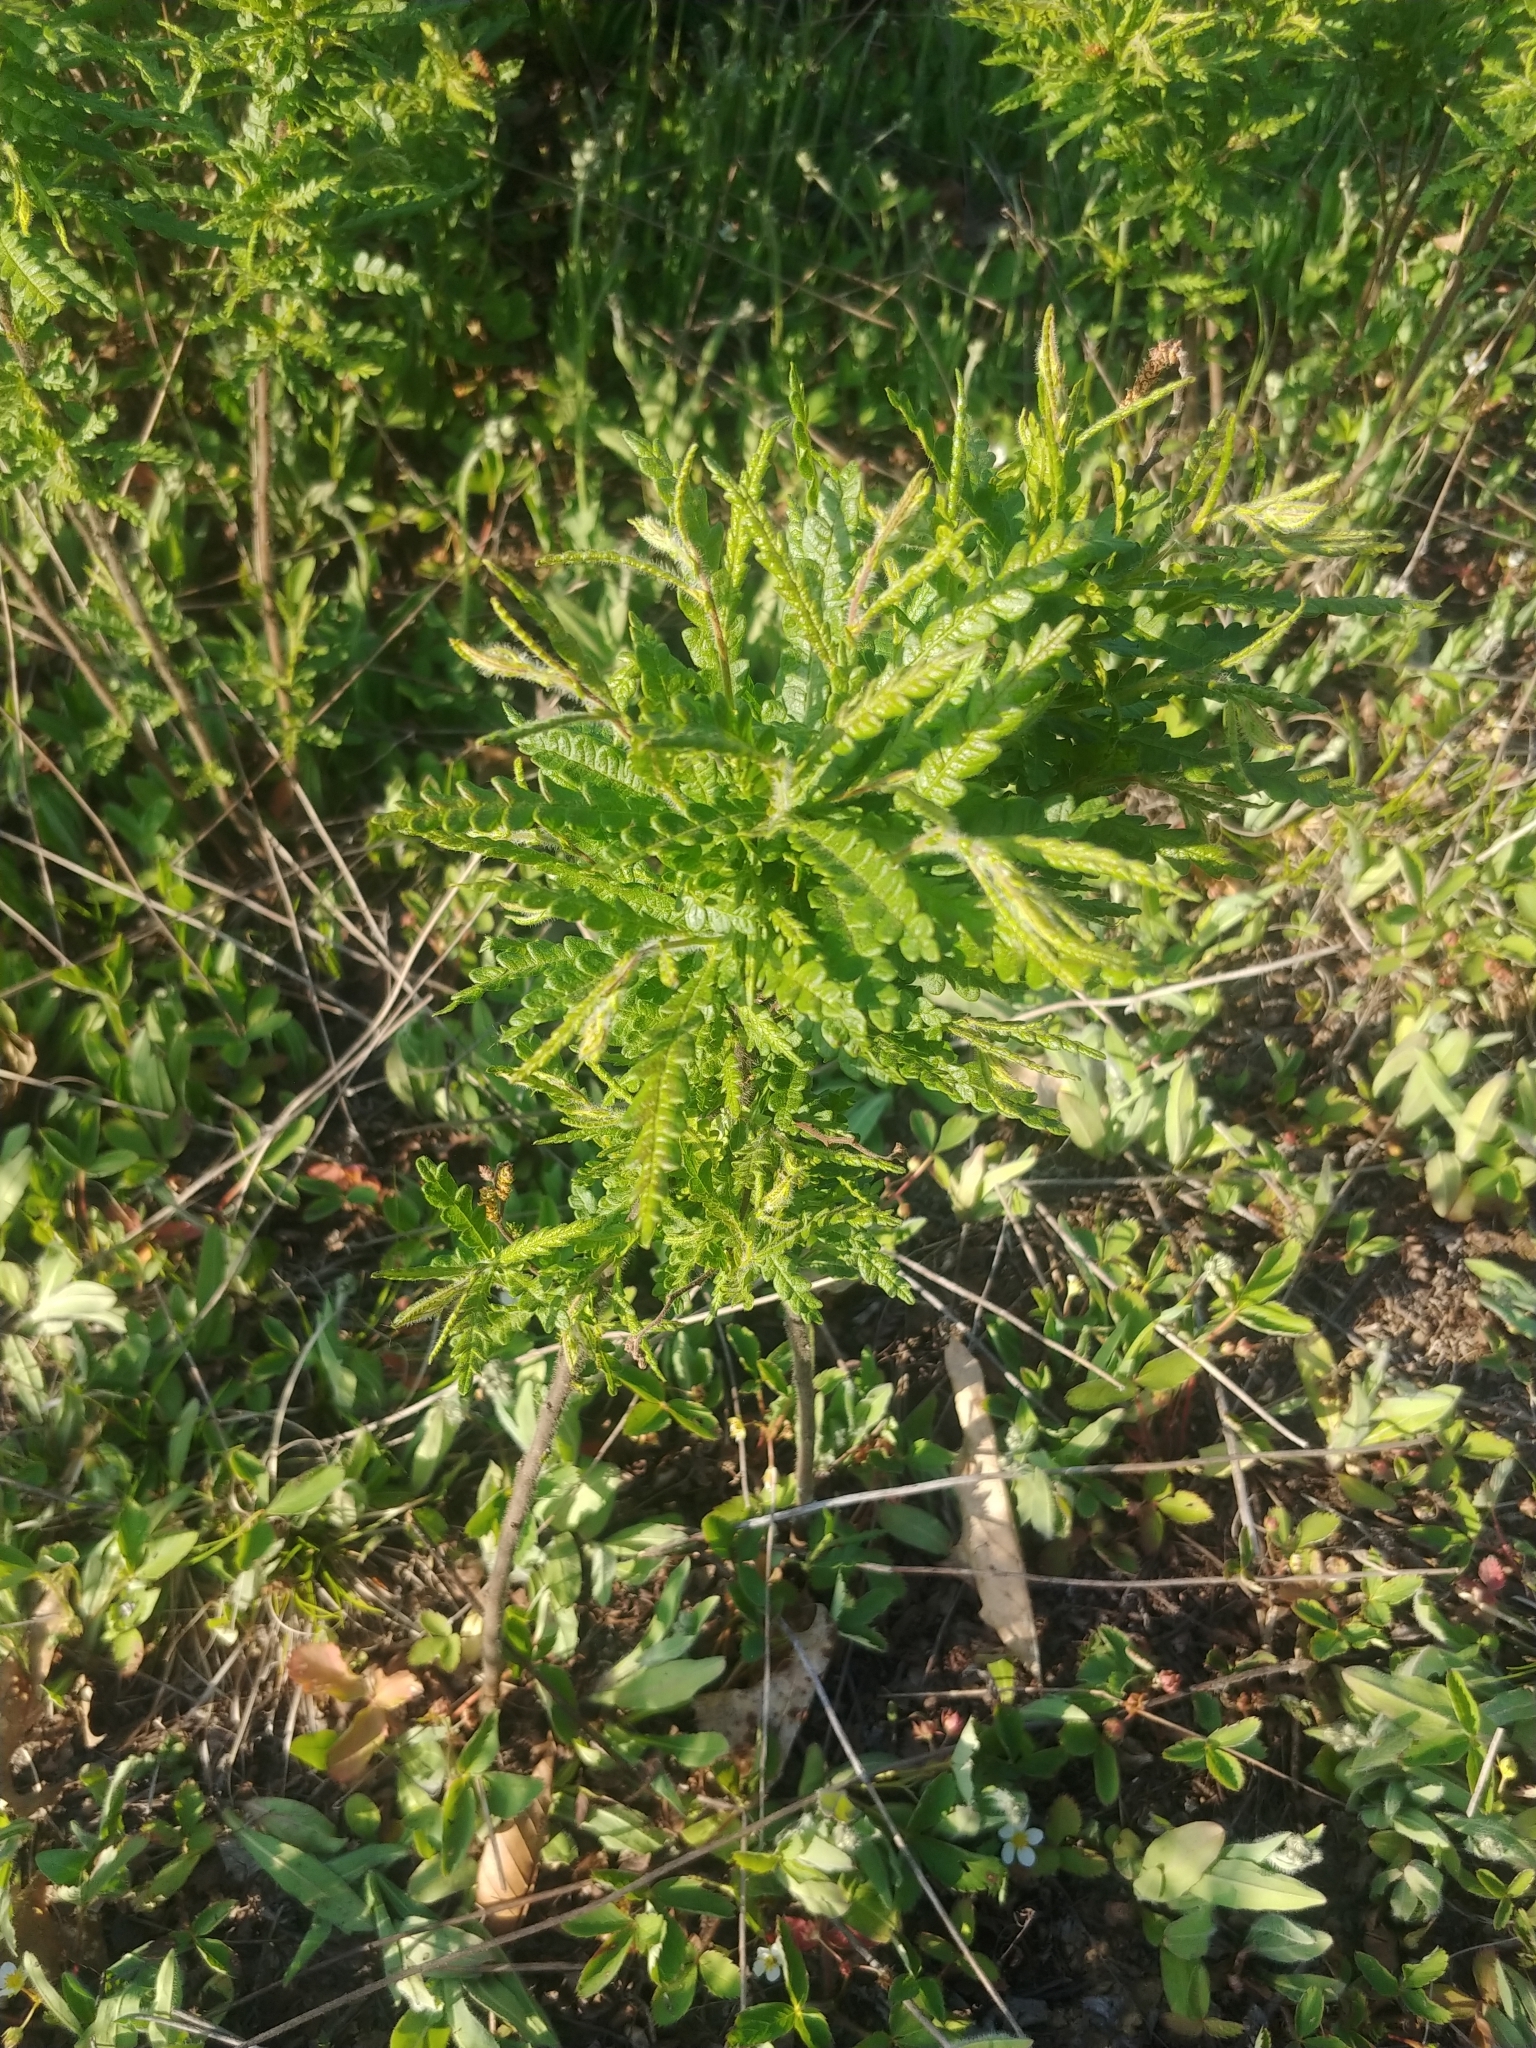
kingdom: Plantae
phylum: Tracheophyta
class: Magnoliopsida
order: Fagales
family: Myricaceae
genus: Comptonia
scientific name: Comptonia peregrina
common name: Sweet-fern
